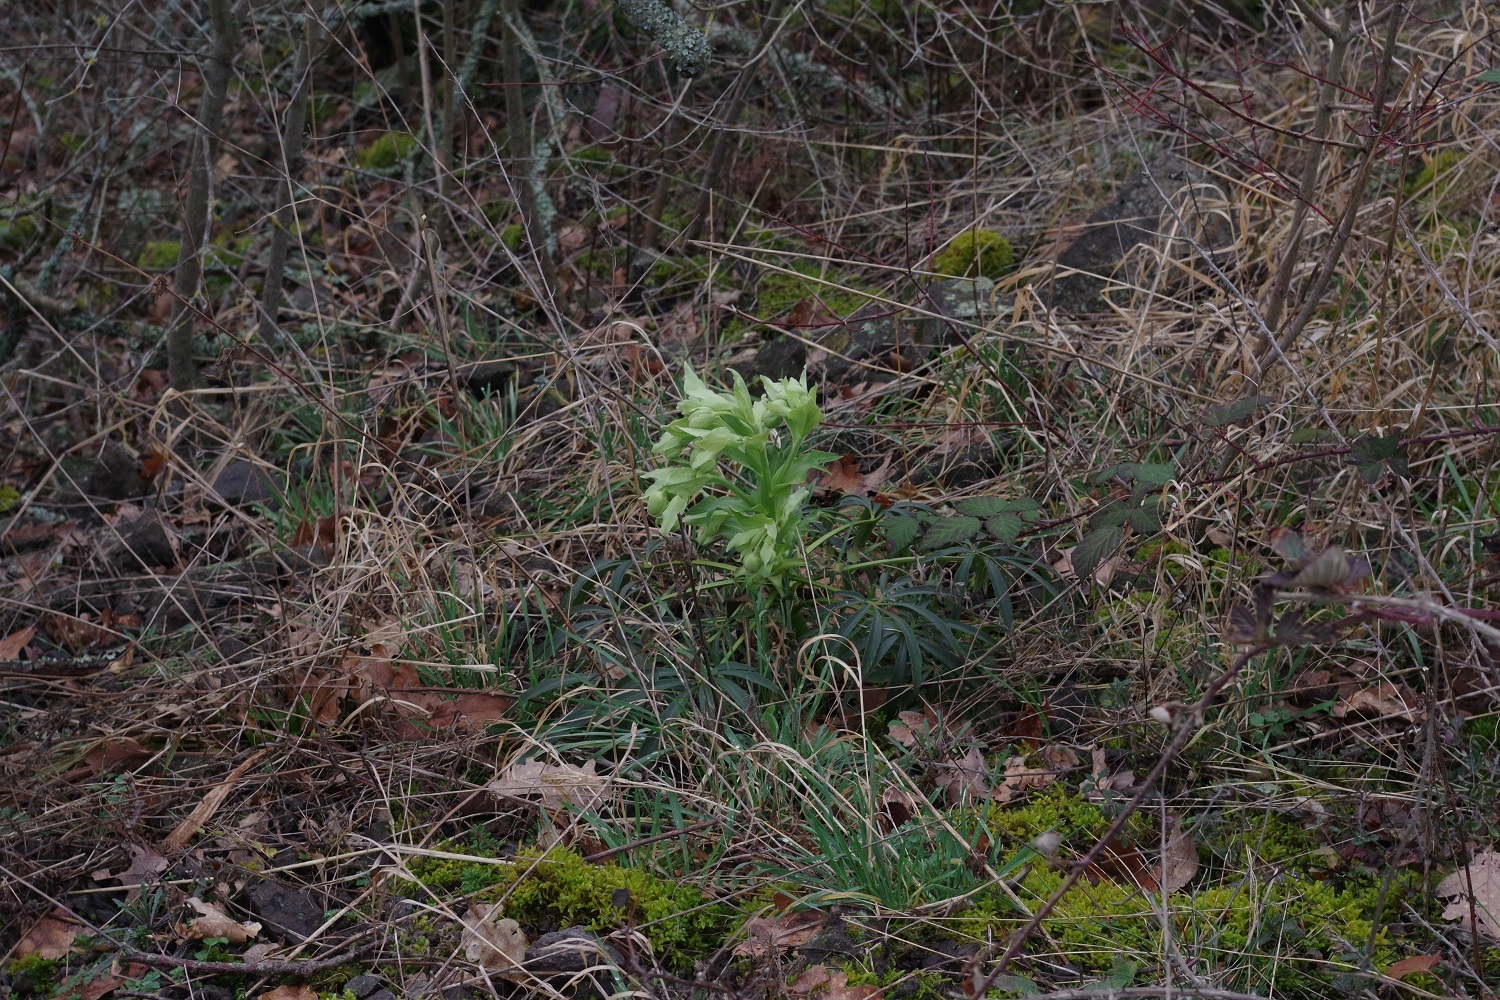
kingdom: Plantae
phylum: Tracheophyta
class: Magnoliopsida
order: Ranunculales
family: Ranunculaceae
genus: Helleborus
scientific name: Helleborus foetidus
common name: Stinking hellebore
